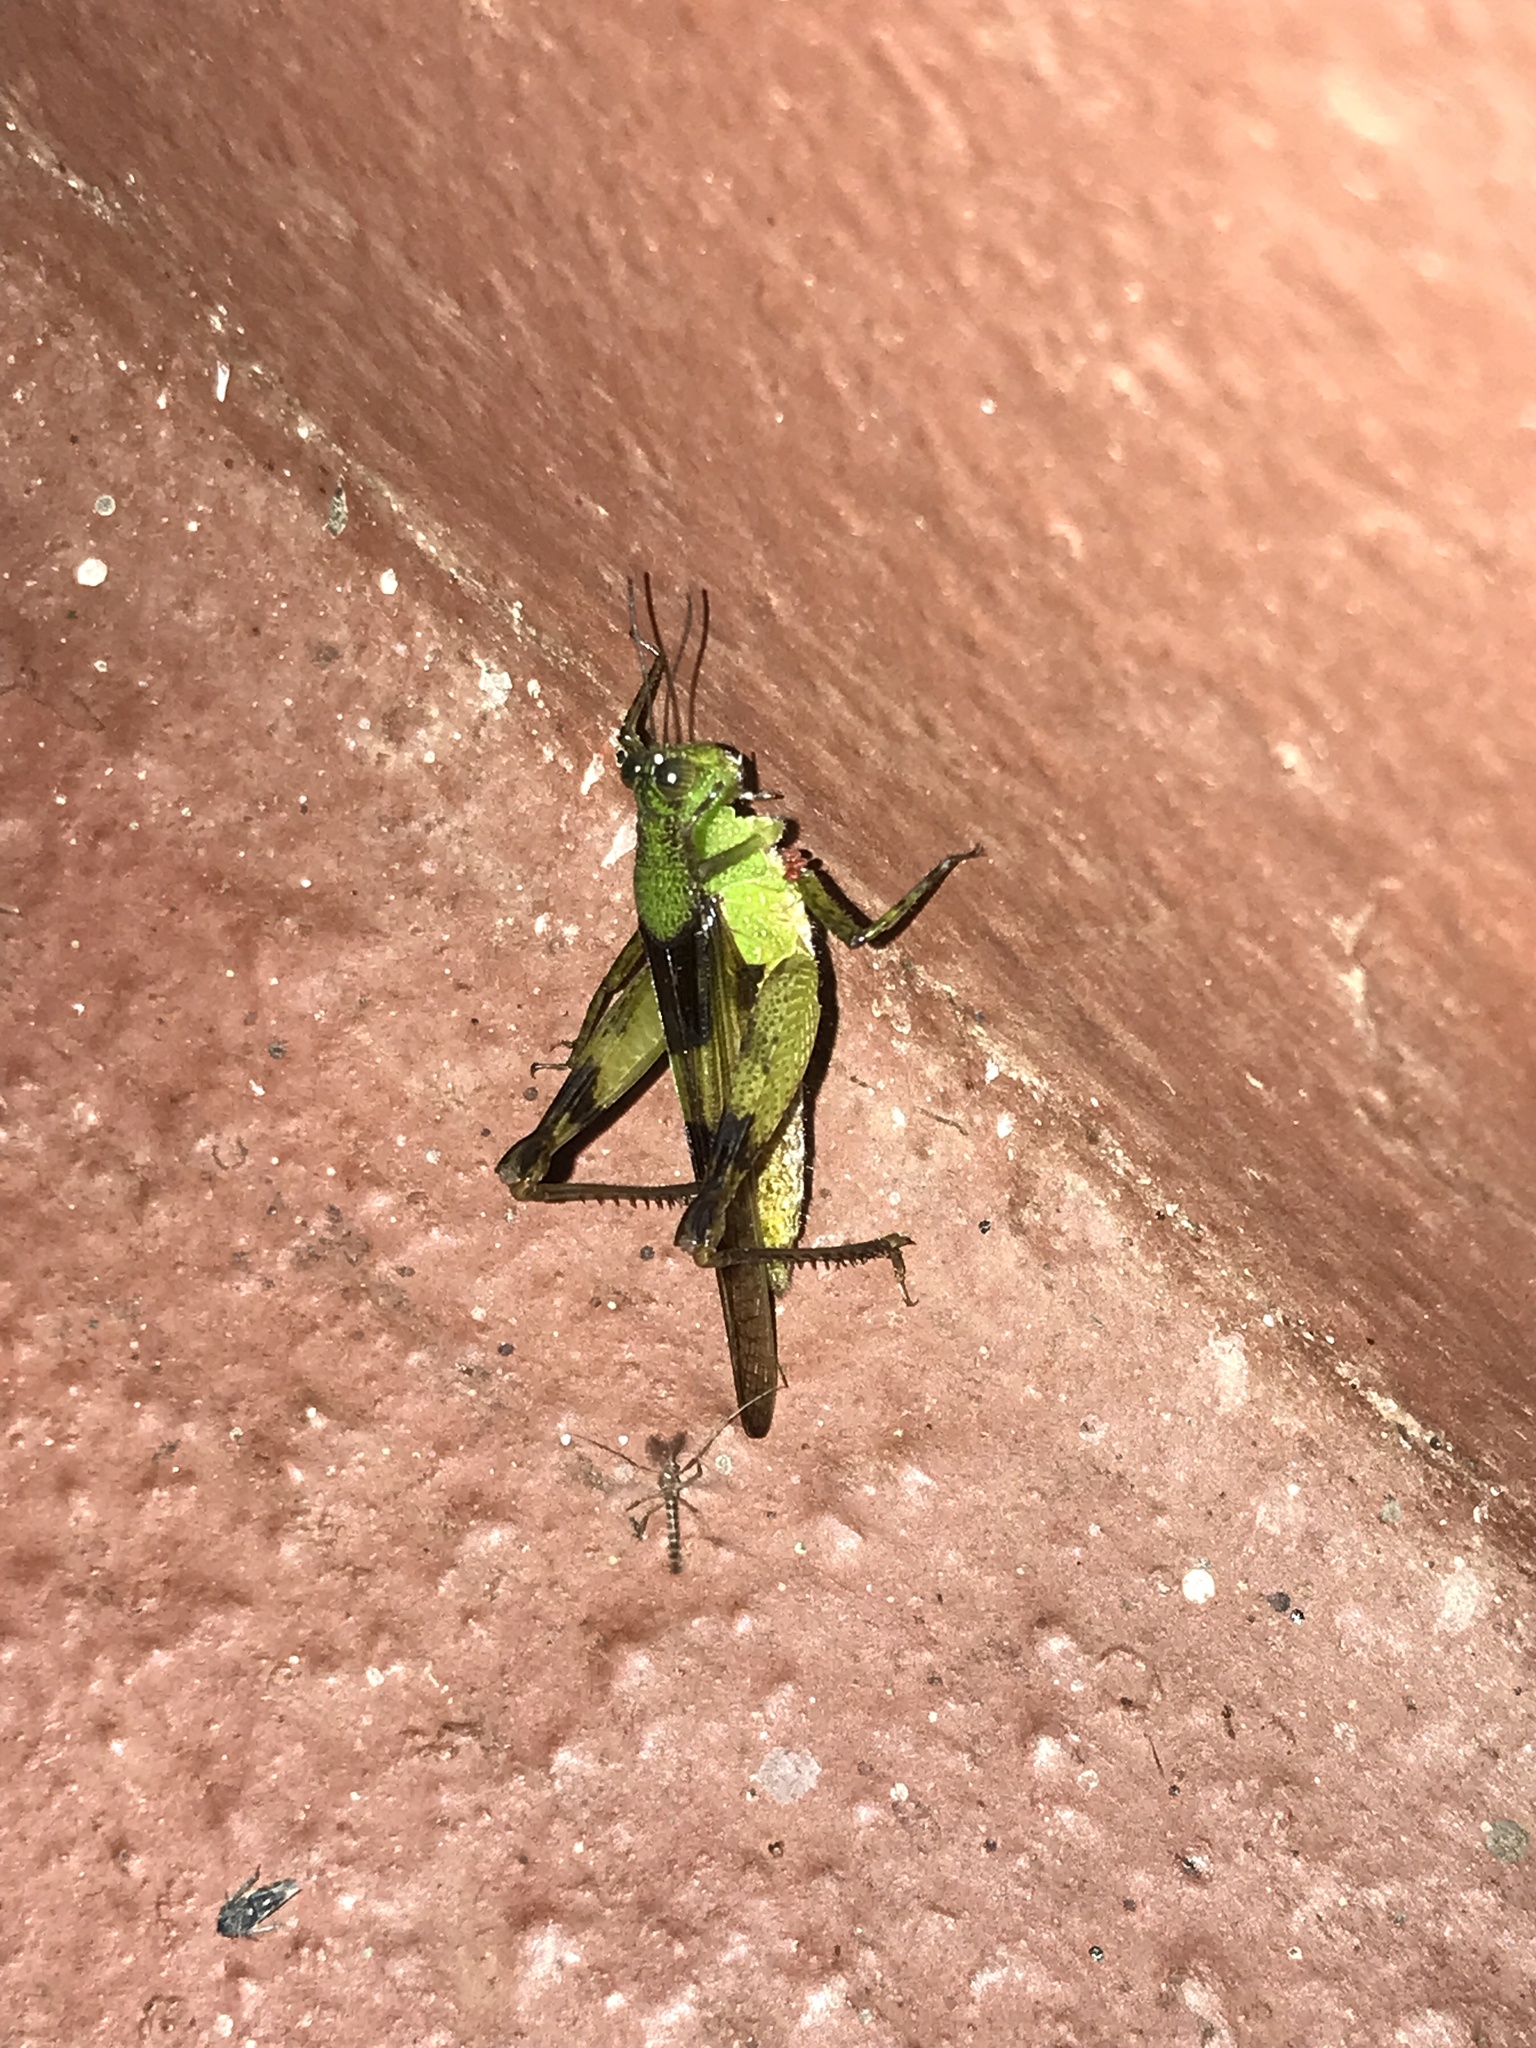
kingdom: Animalia
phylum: Arthropoda
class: Insecta
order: Orthoptera
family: Acrididae
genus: Paulinia
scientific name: Paulinia acuminata
